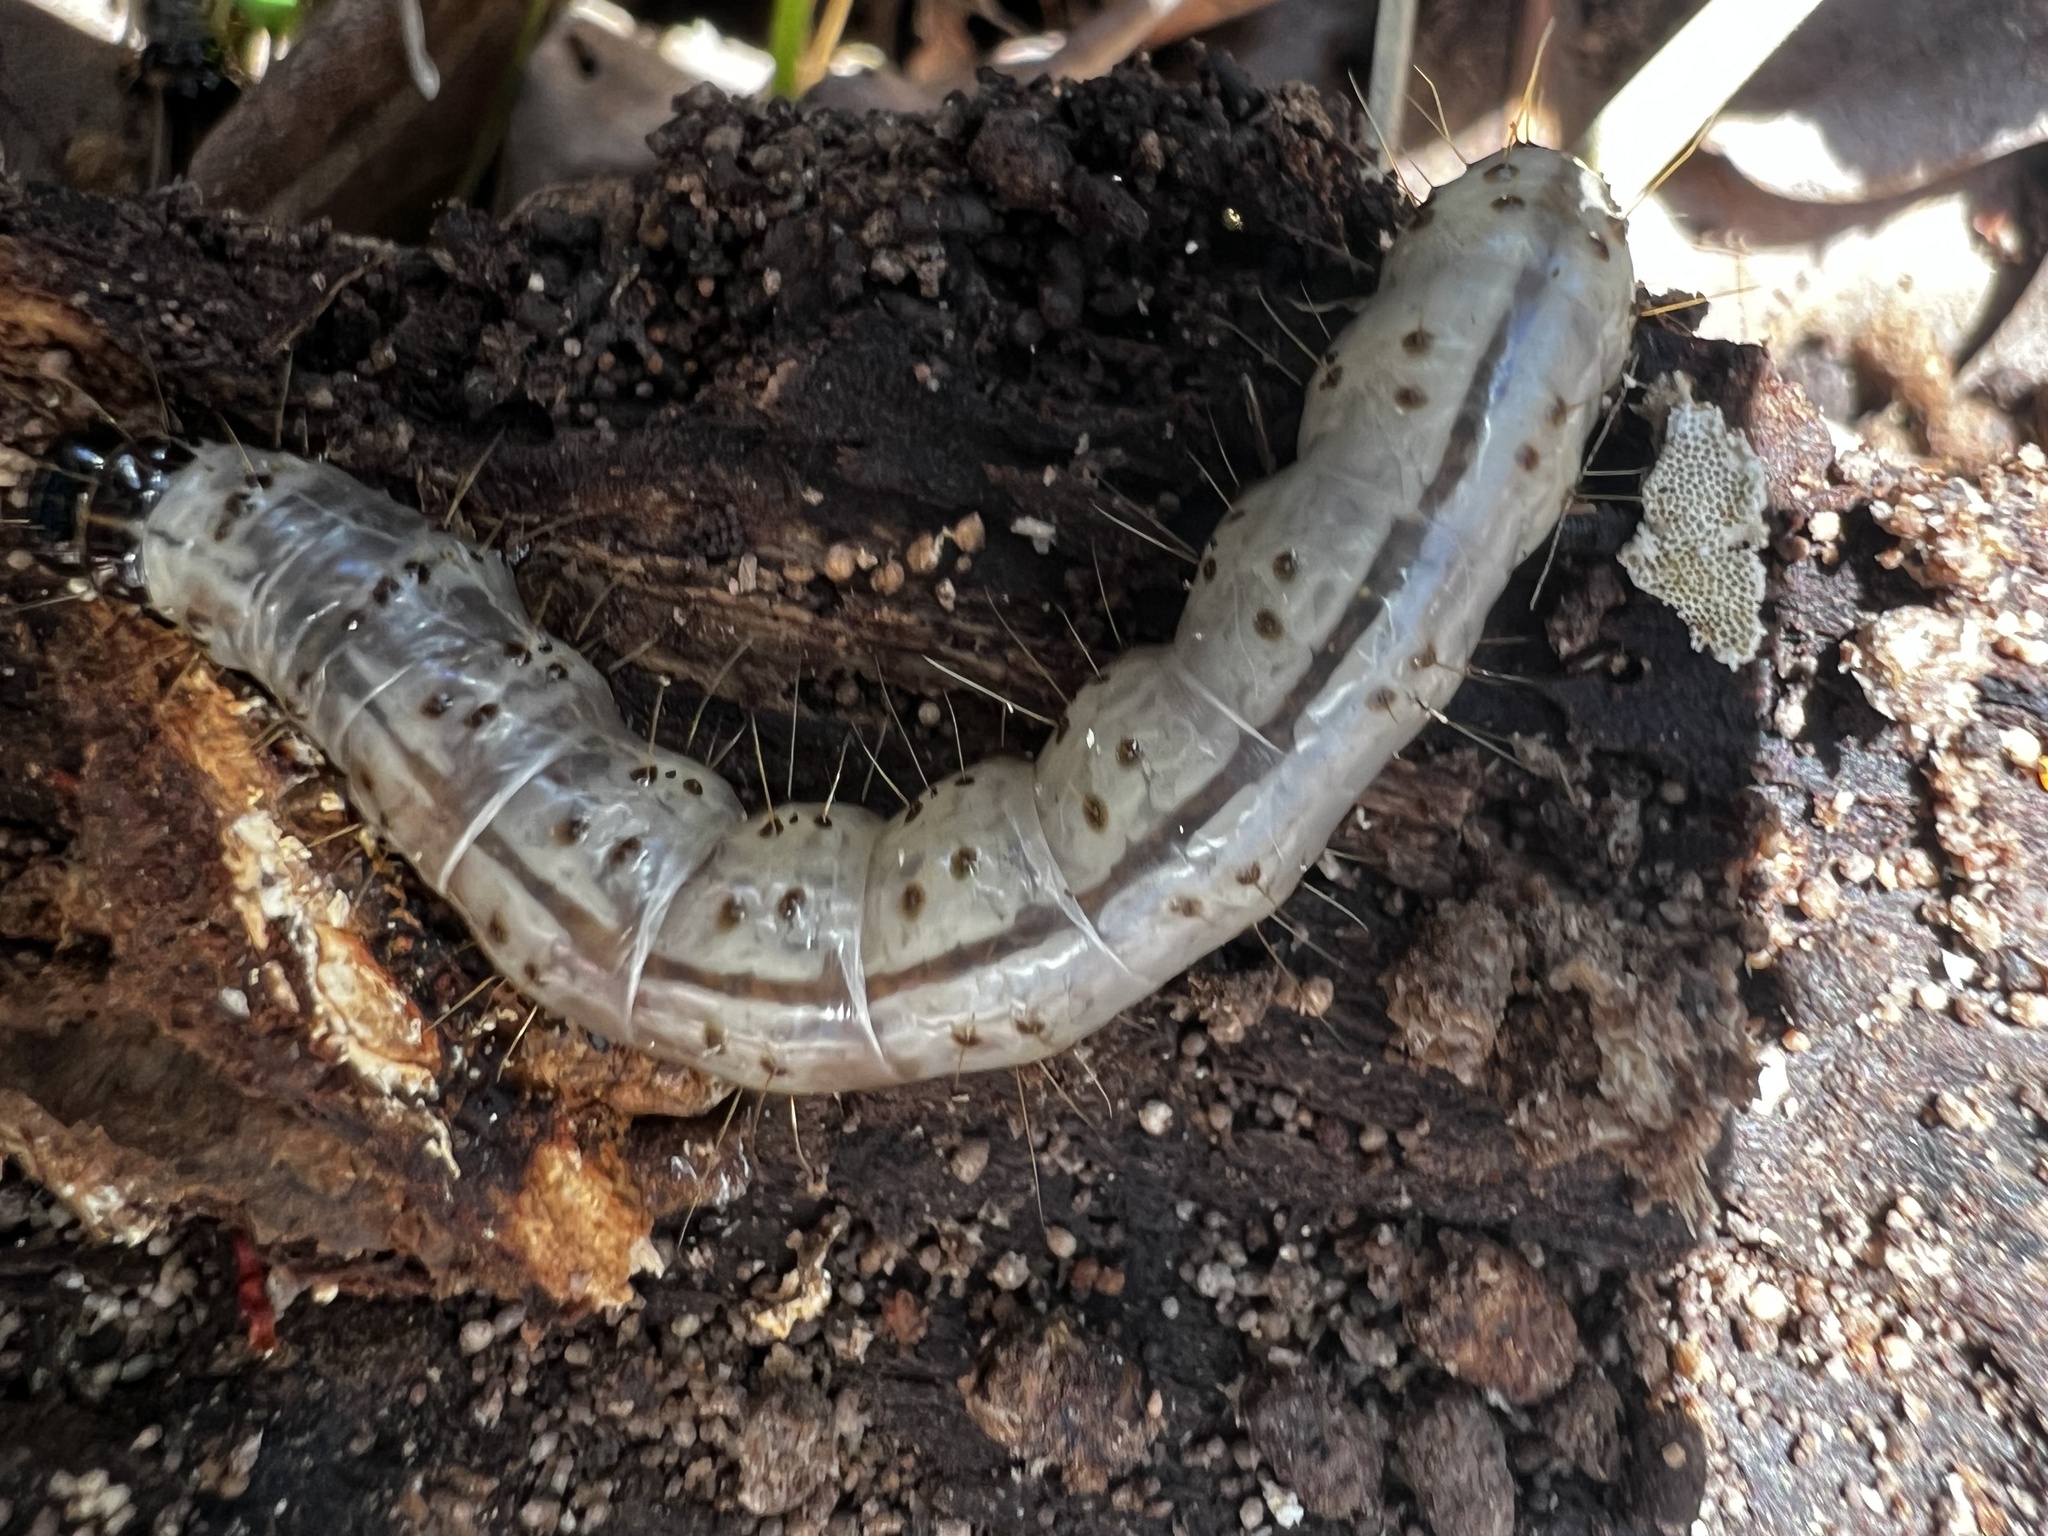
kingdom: Animalia
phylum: Arthropoda
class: Insecta
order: Lepidoptera
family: Erebidae
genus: Scolecocampa
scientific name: Scolecocampa liburna
